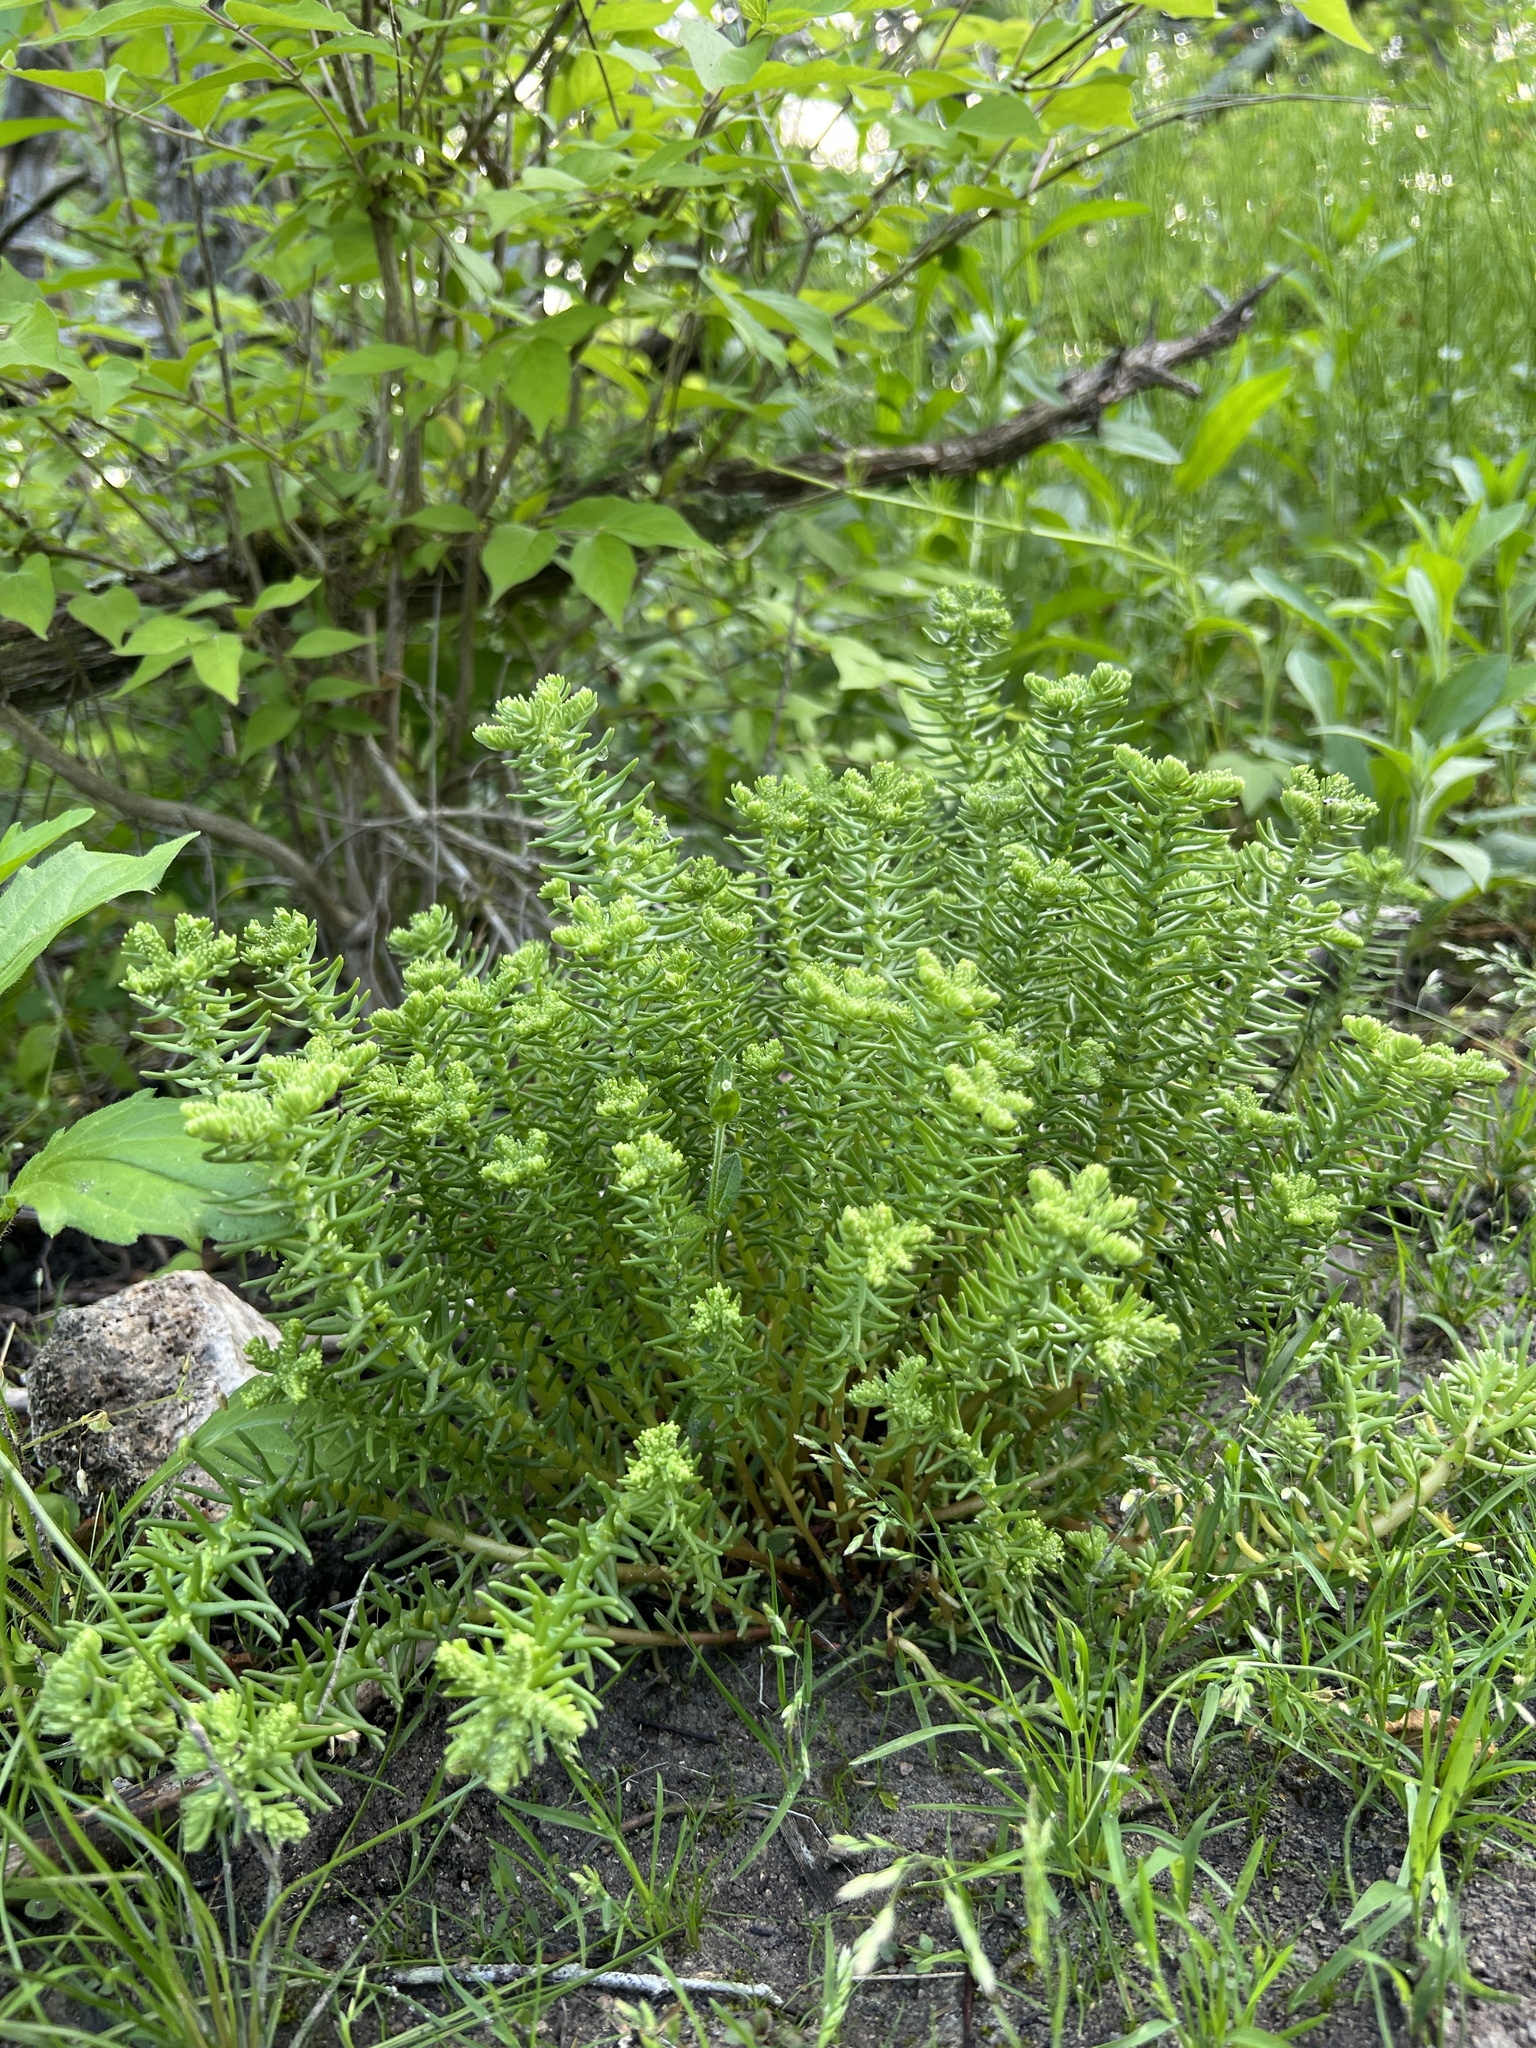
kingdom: Plantae
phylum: Tracheophyta
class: Magnoliopsida
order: Saxifragales
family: Crassulaceae
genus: Sedum
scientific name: Sedum pulchellum
